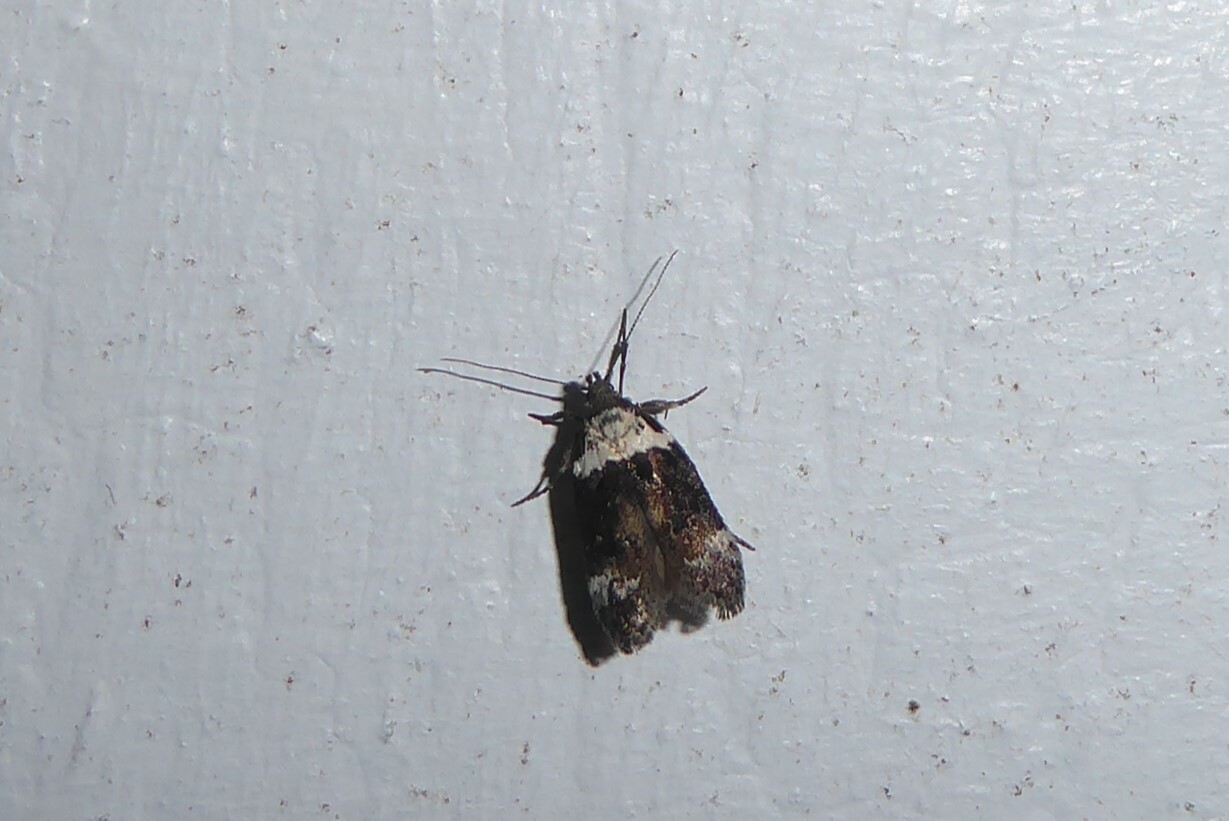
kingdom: Animalia
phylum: Arthropoda
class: Insecta
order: Lepidoptera
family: Oecophoridae
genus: Trachypepla
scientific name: Trachypepla conspicuella
